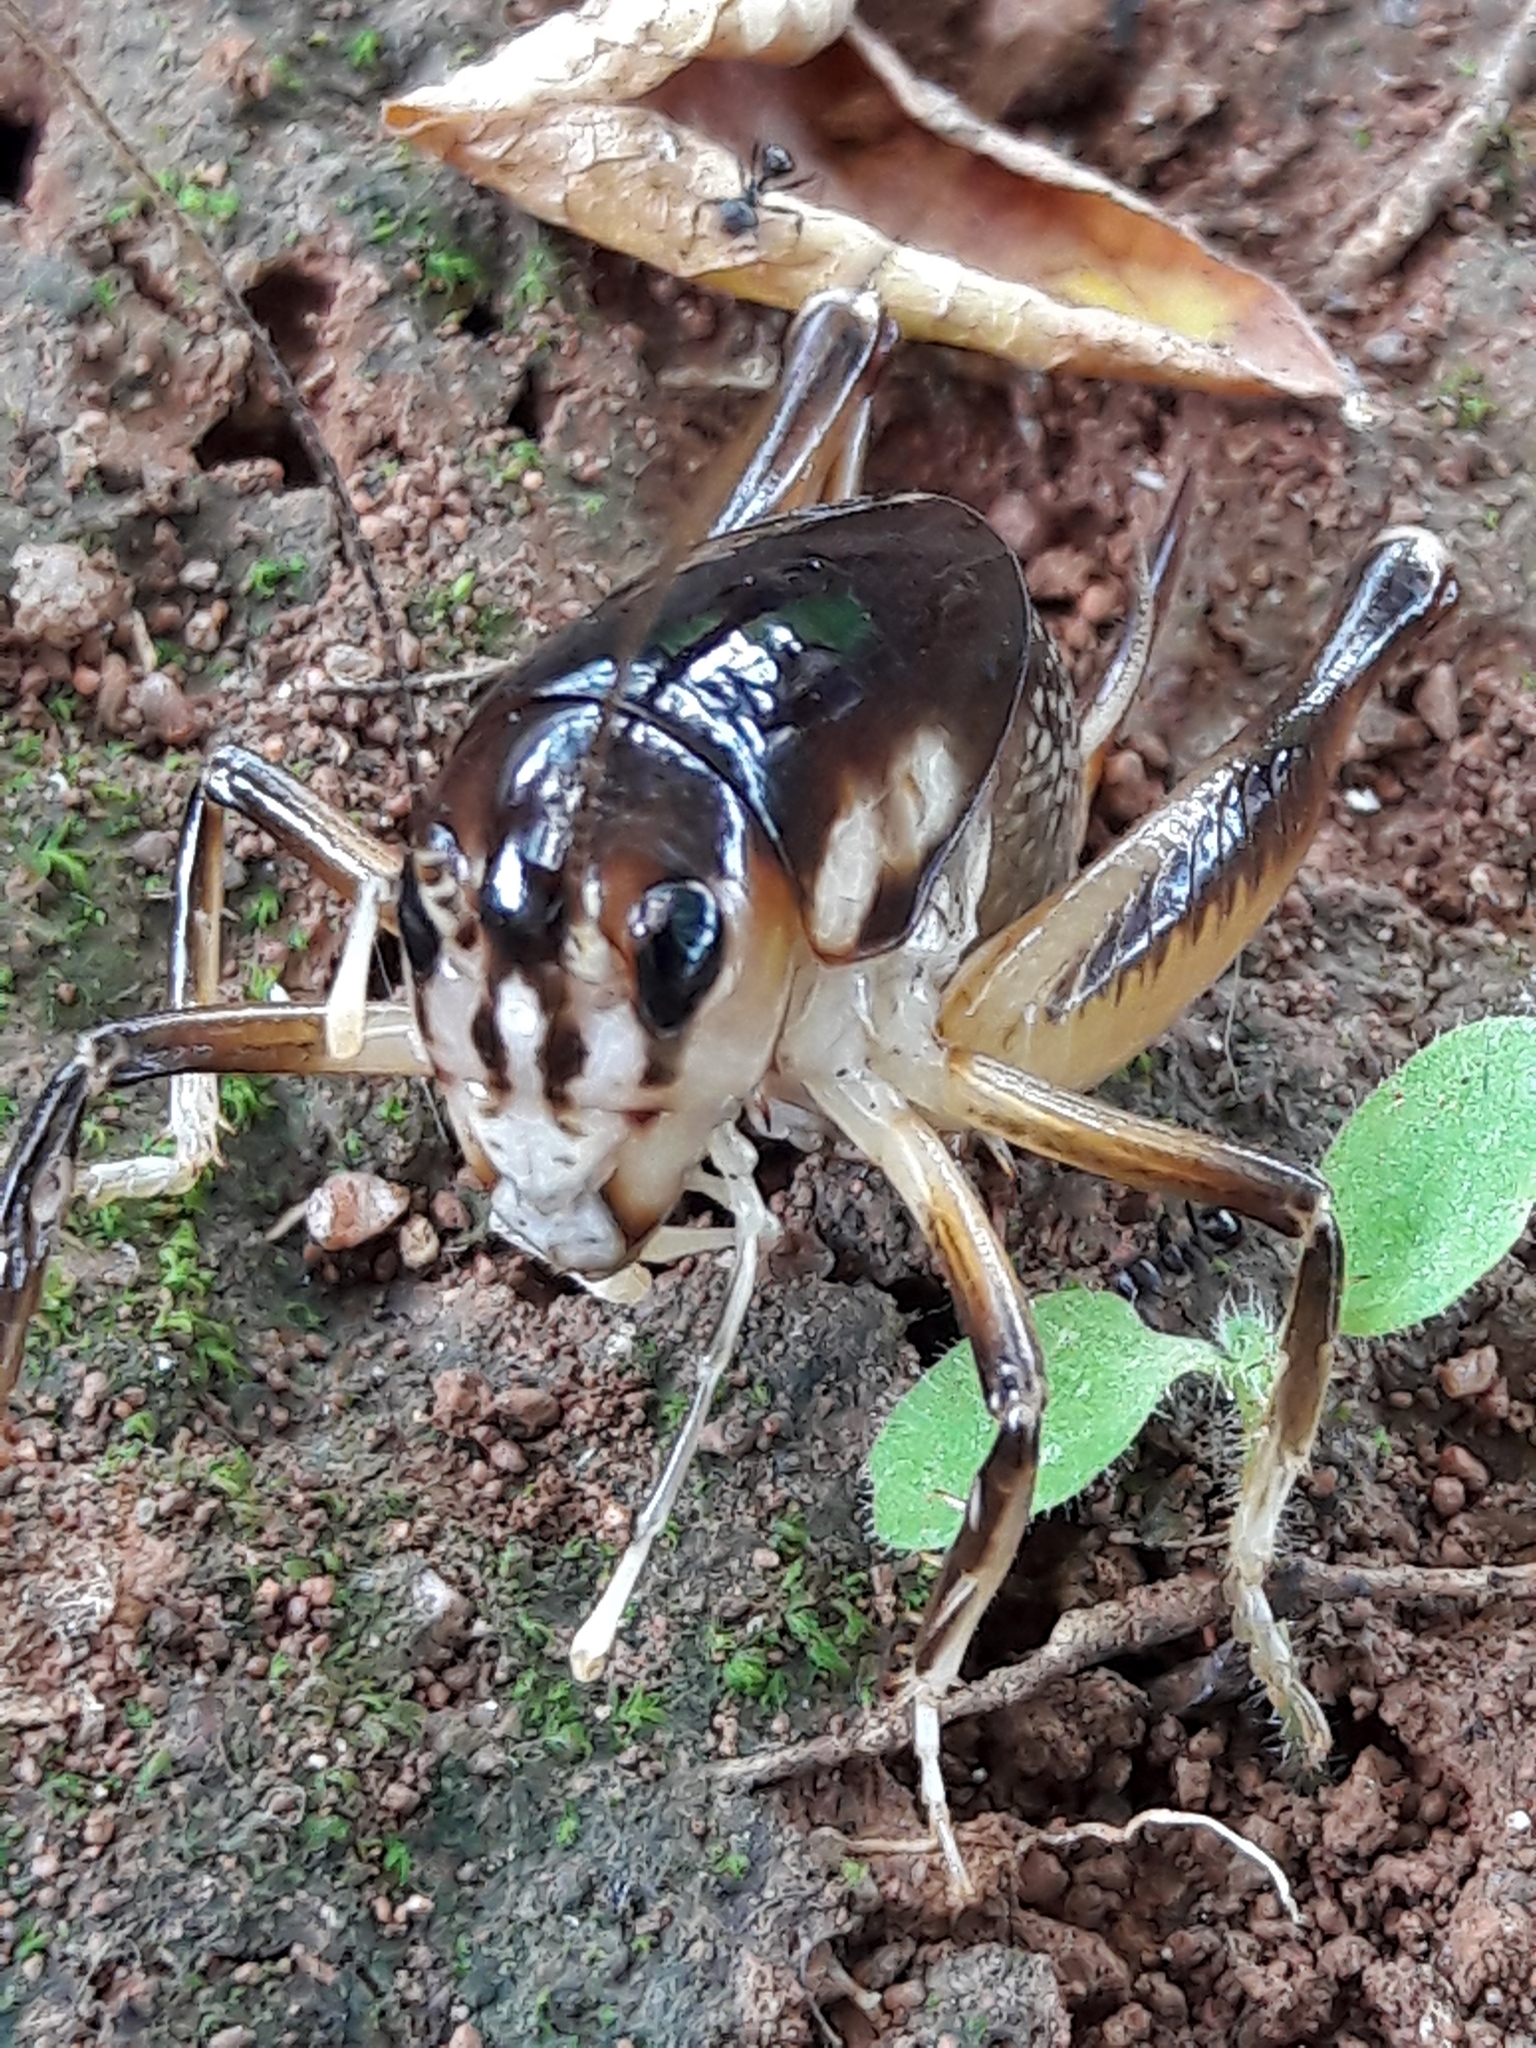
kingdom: Animalia
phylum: Arthropoda
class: Insecta
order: Orthoptera
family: Anostostomatidae
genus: Apotetamenus
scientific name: Apotetamenus clipeatus
